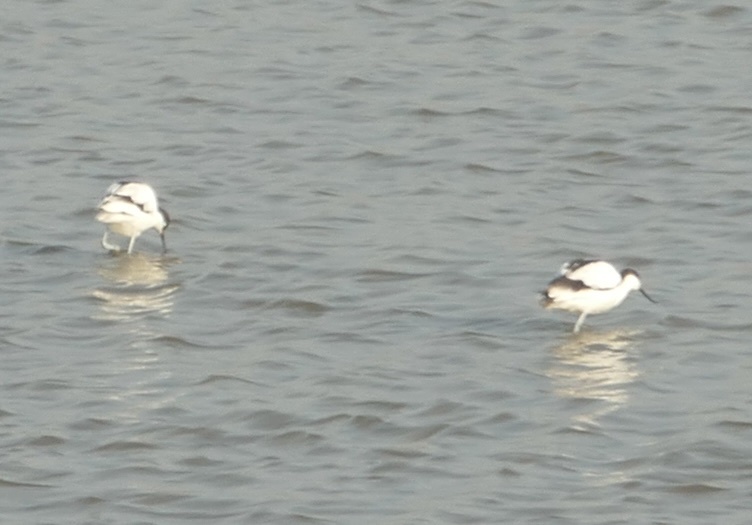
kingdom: Animalia
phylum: Chordata
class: Aves
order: Charadriiformes
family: Recurvirostridae
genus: Recurvirostra
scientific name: Recurvirostra avosetta
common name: Pied avocet
